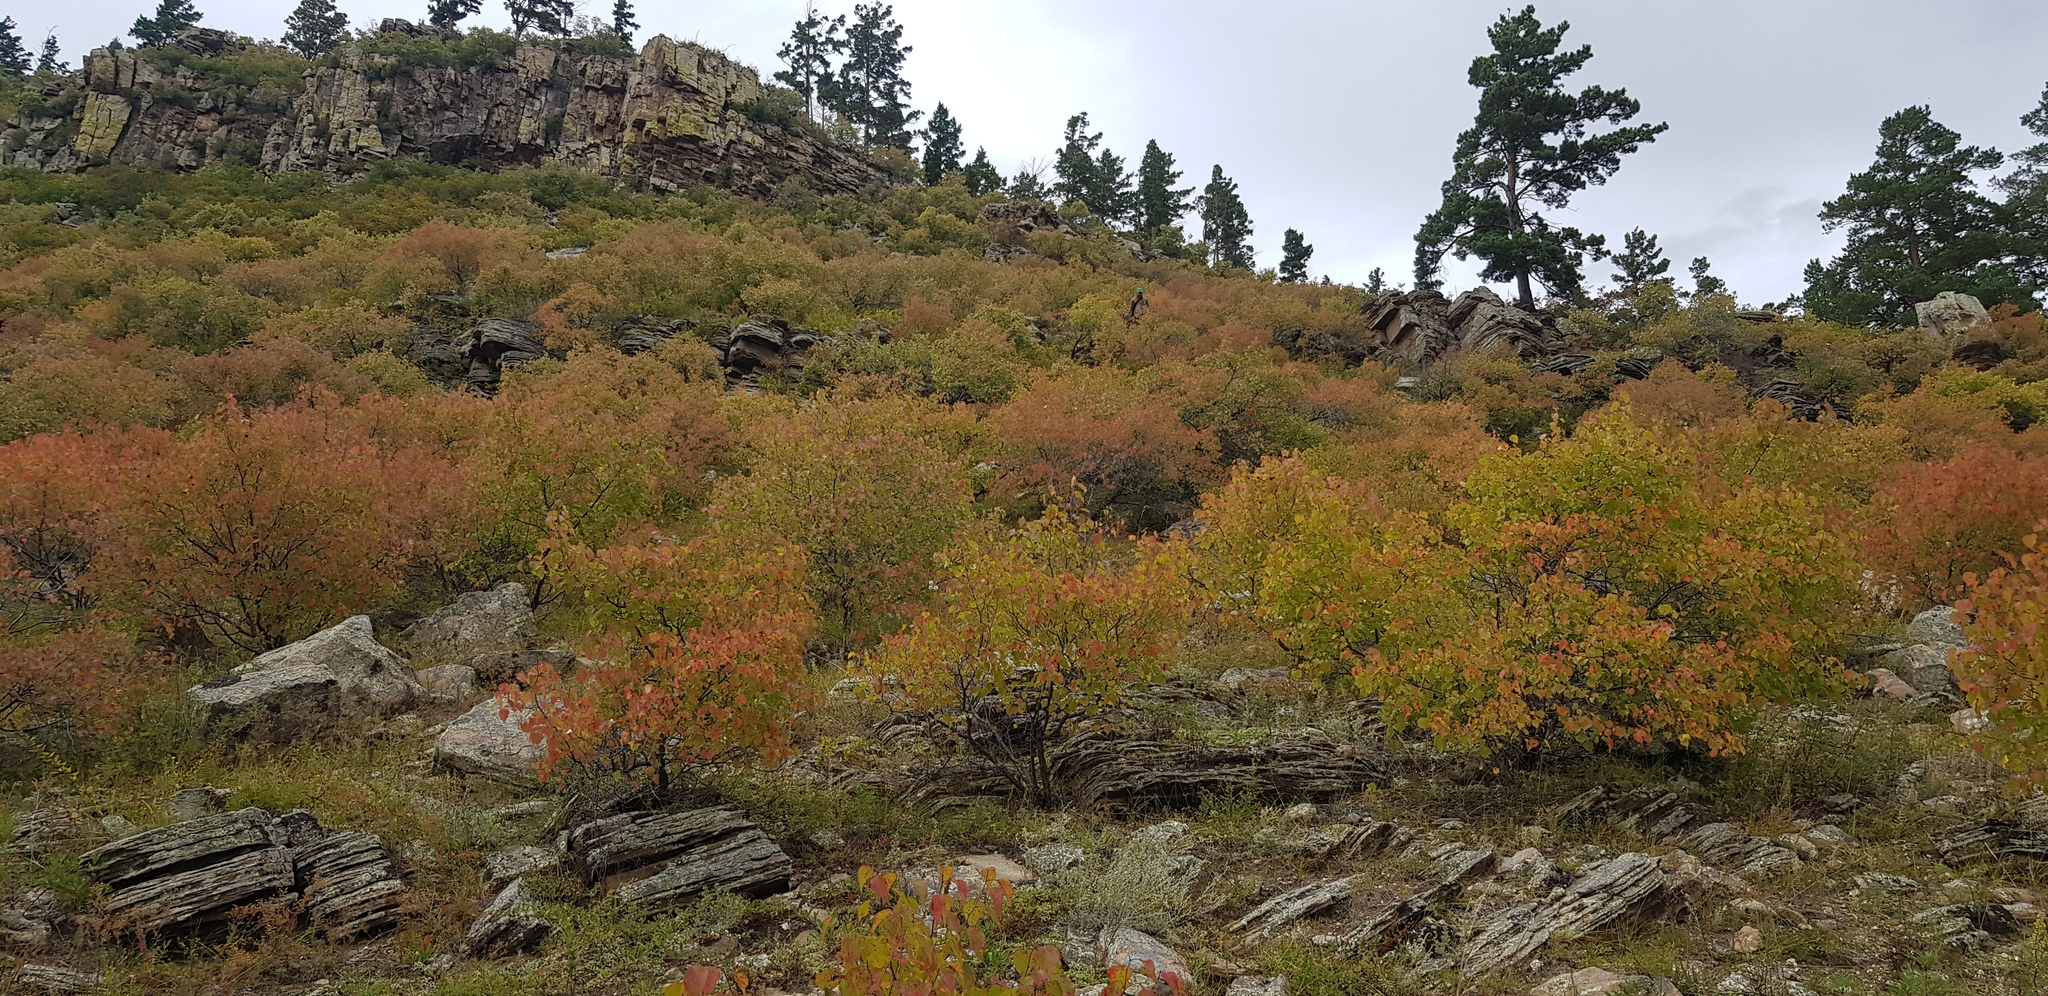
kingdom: Plantae
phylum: Tracheophyta
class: Magnoliopsida
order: Rosales
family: Rosaceae
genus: Prunus
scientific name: Prunus sibirica
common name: Siberian apricot
